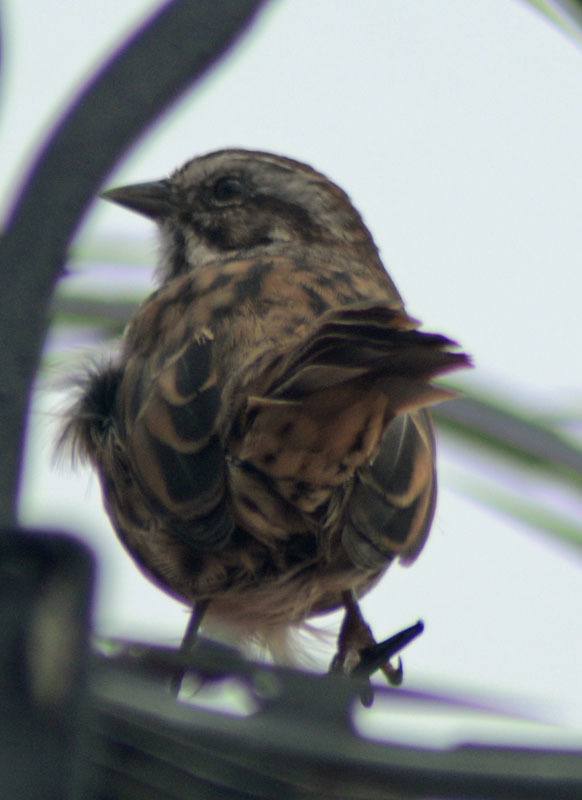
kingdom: Animalia
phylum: Chordata
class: Aves
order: Passeriformes
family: Passerellidae
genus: Melospiza
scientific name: Melospiza melodia
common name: Song sparrow
